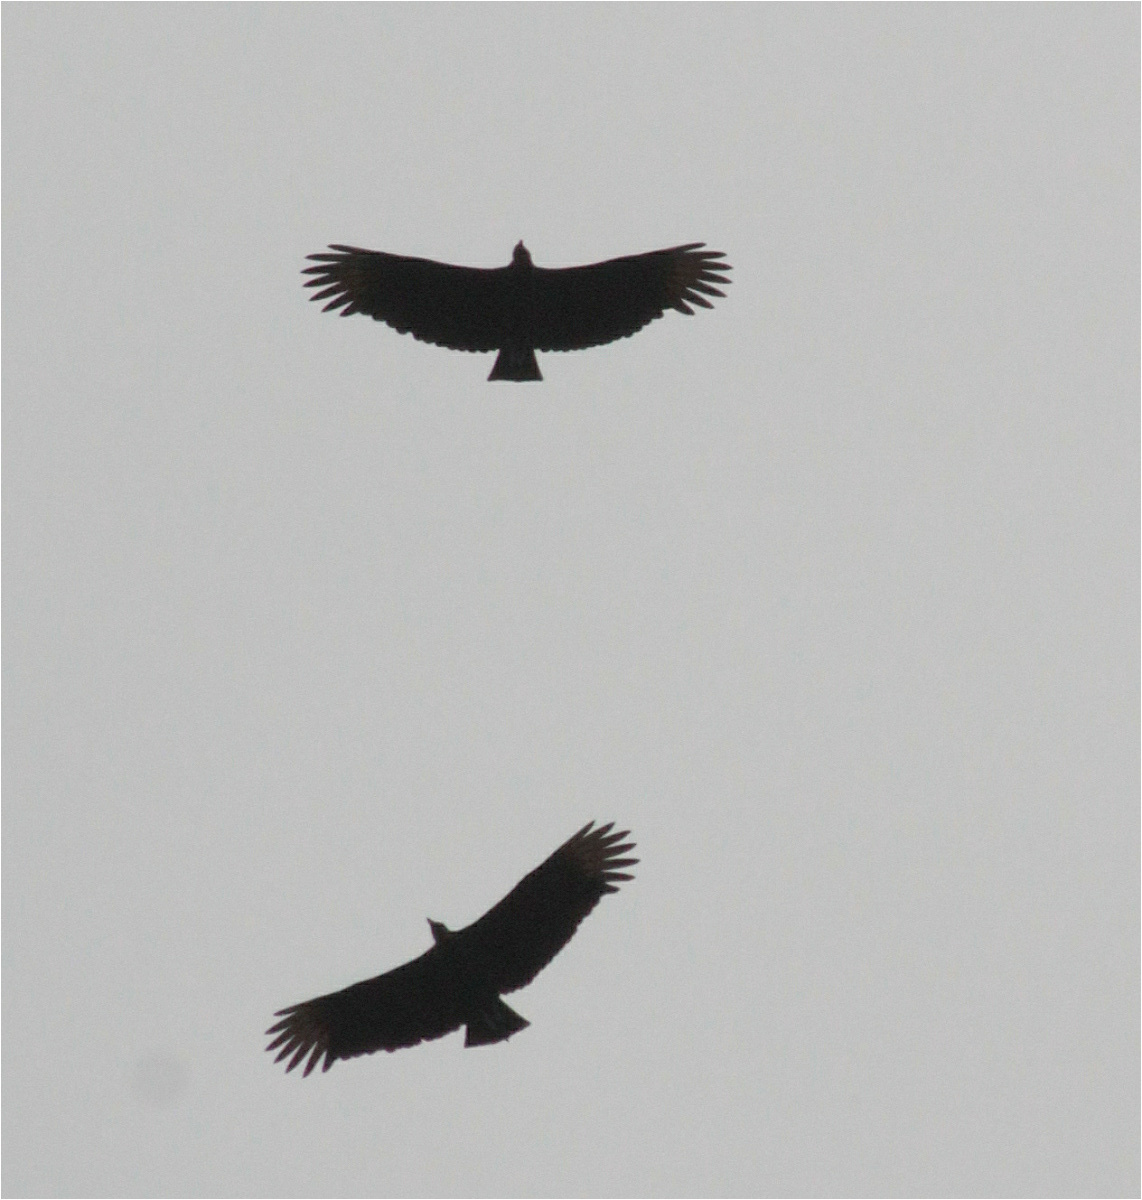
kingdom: Animalia
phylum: Chordata
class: Aves
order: Accipitriformes
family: Cathartidae
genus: Coragyps
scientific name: Coragyps atratus
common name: Black vulture
